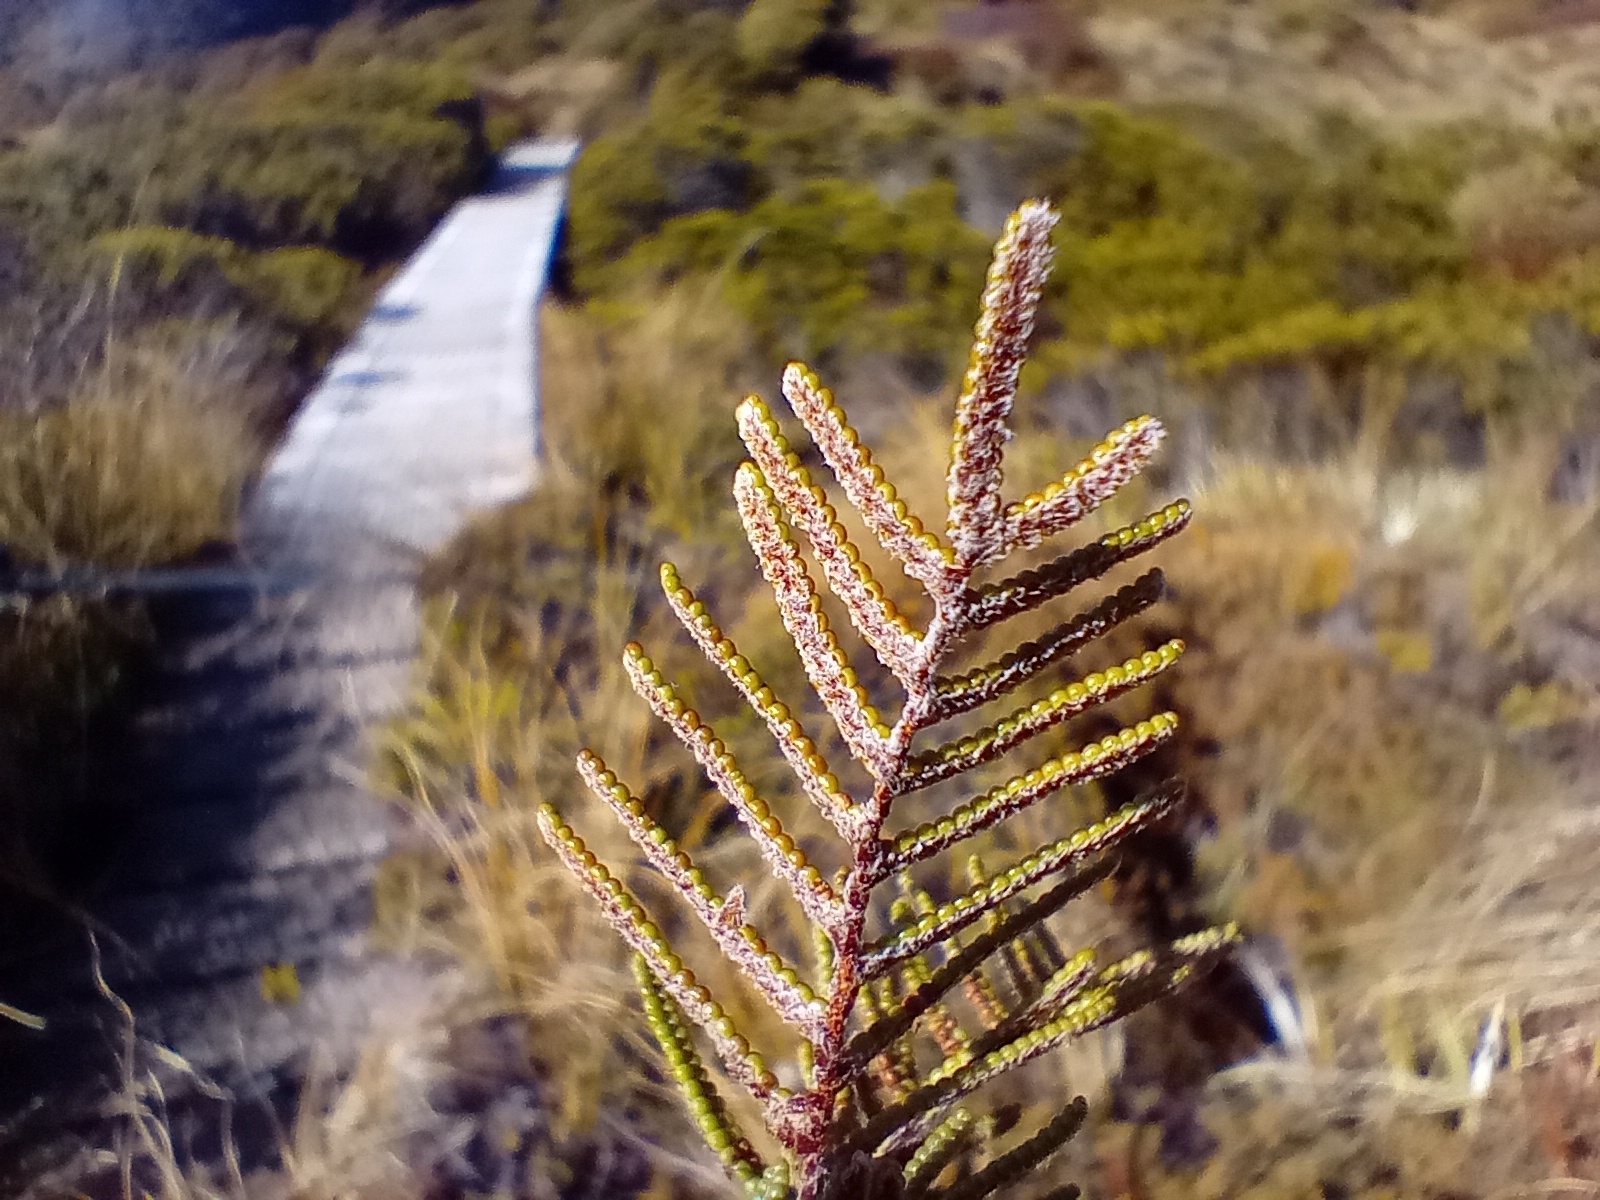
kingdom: Plantae
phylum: Tracheophyta
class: Polypodiopsida
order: Gleicheniales
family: Gleicheniaceae
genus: Gleichenia
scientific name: Gleichenia alpina
